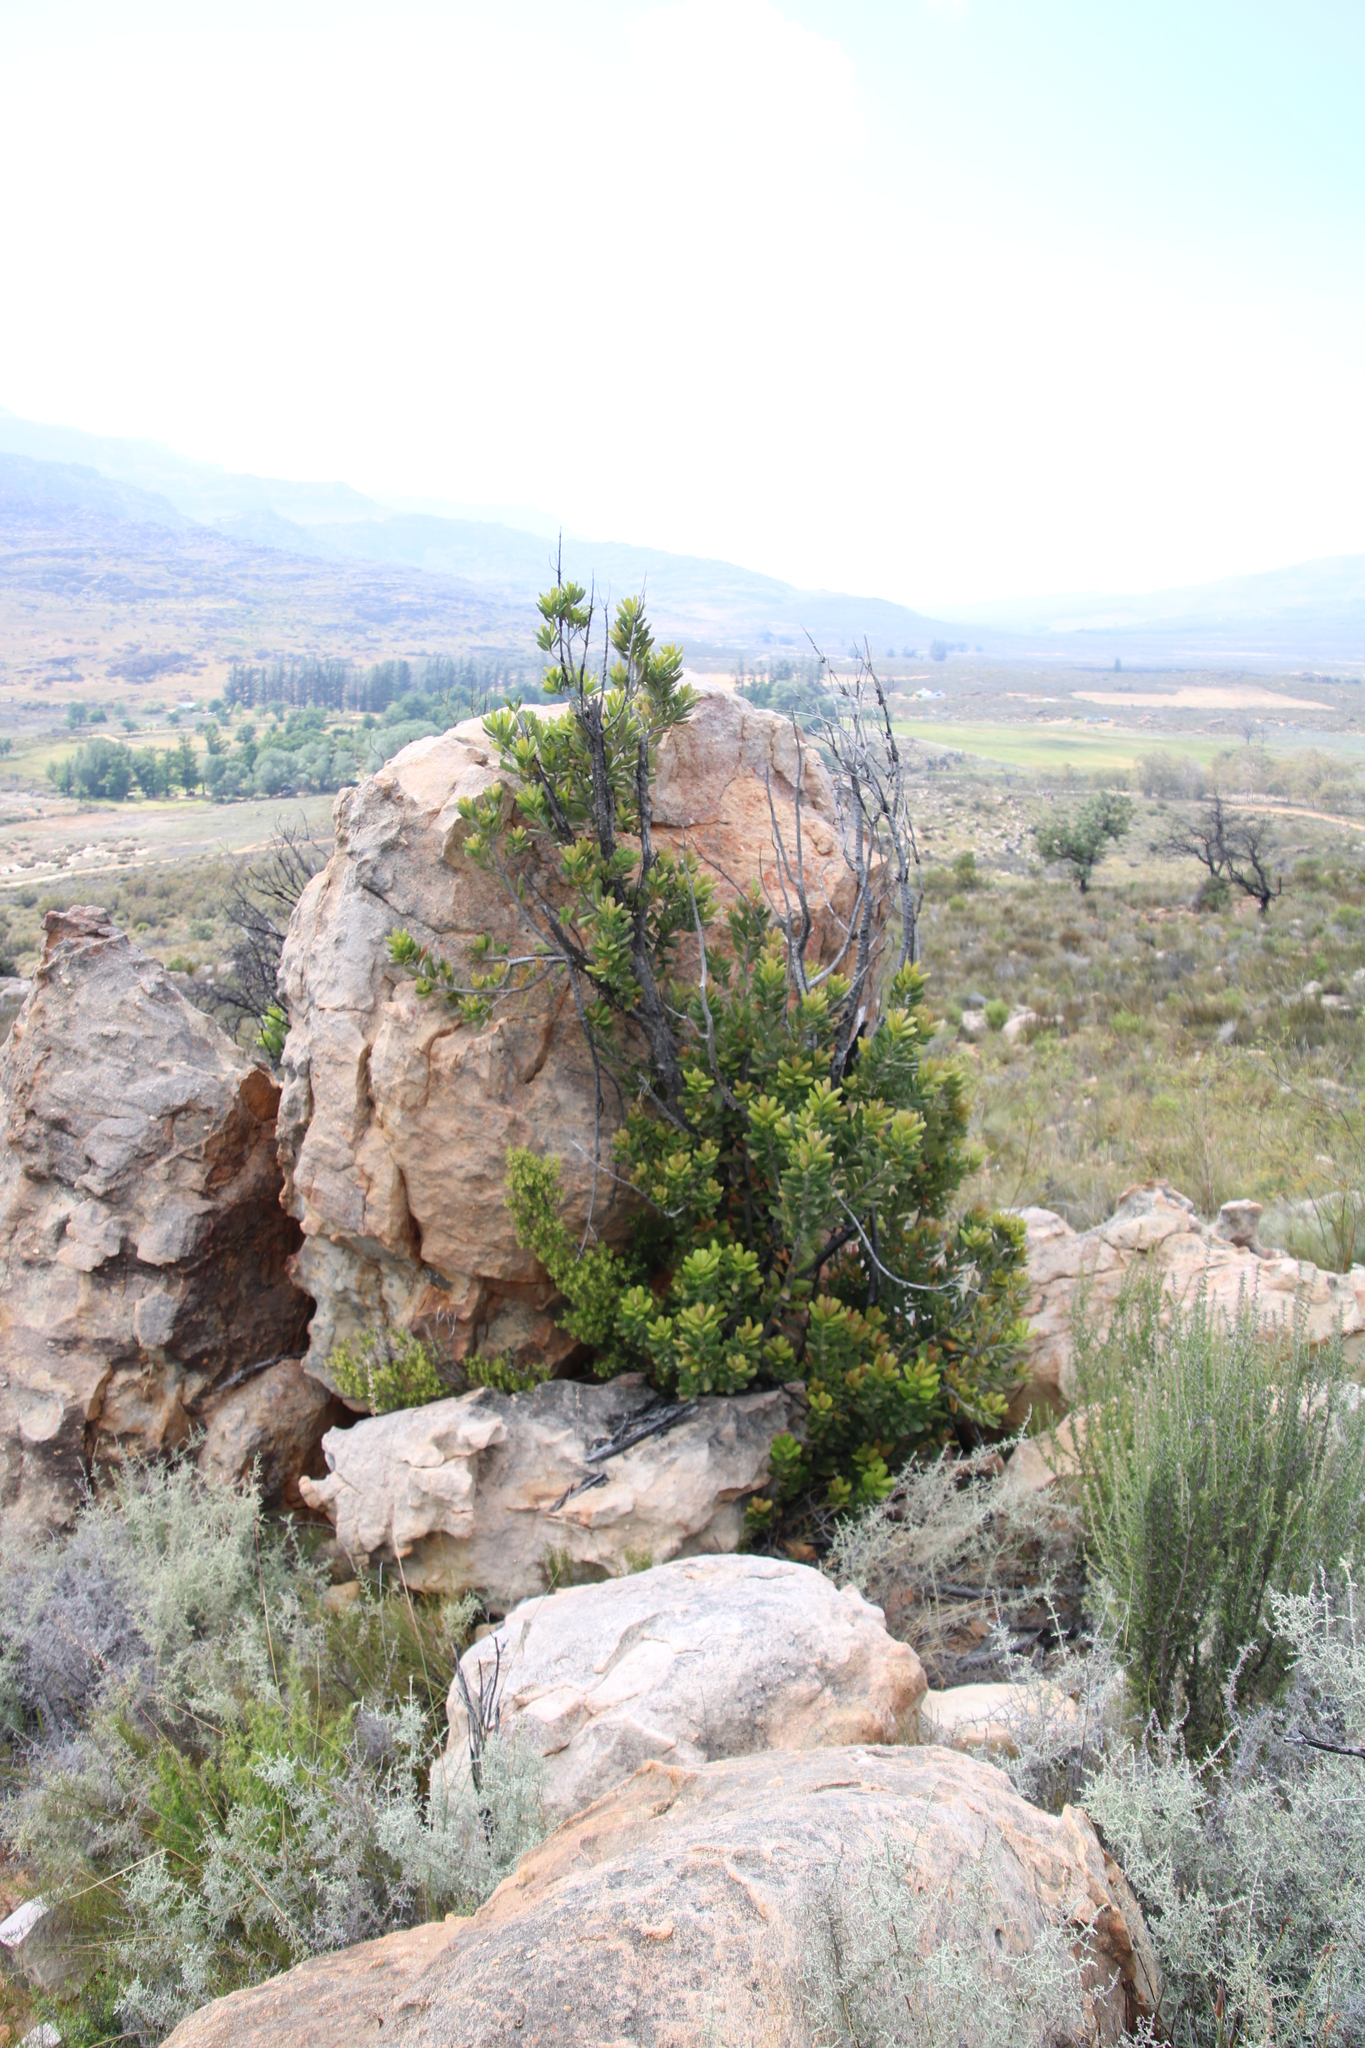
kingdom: Plantae
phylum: Tracheophyta
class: Magnoliopsida
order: Sapindales
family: Anacardiaceae
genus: Heeria
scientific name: Heeria argentea
